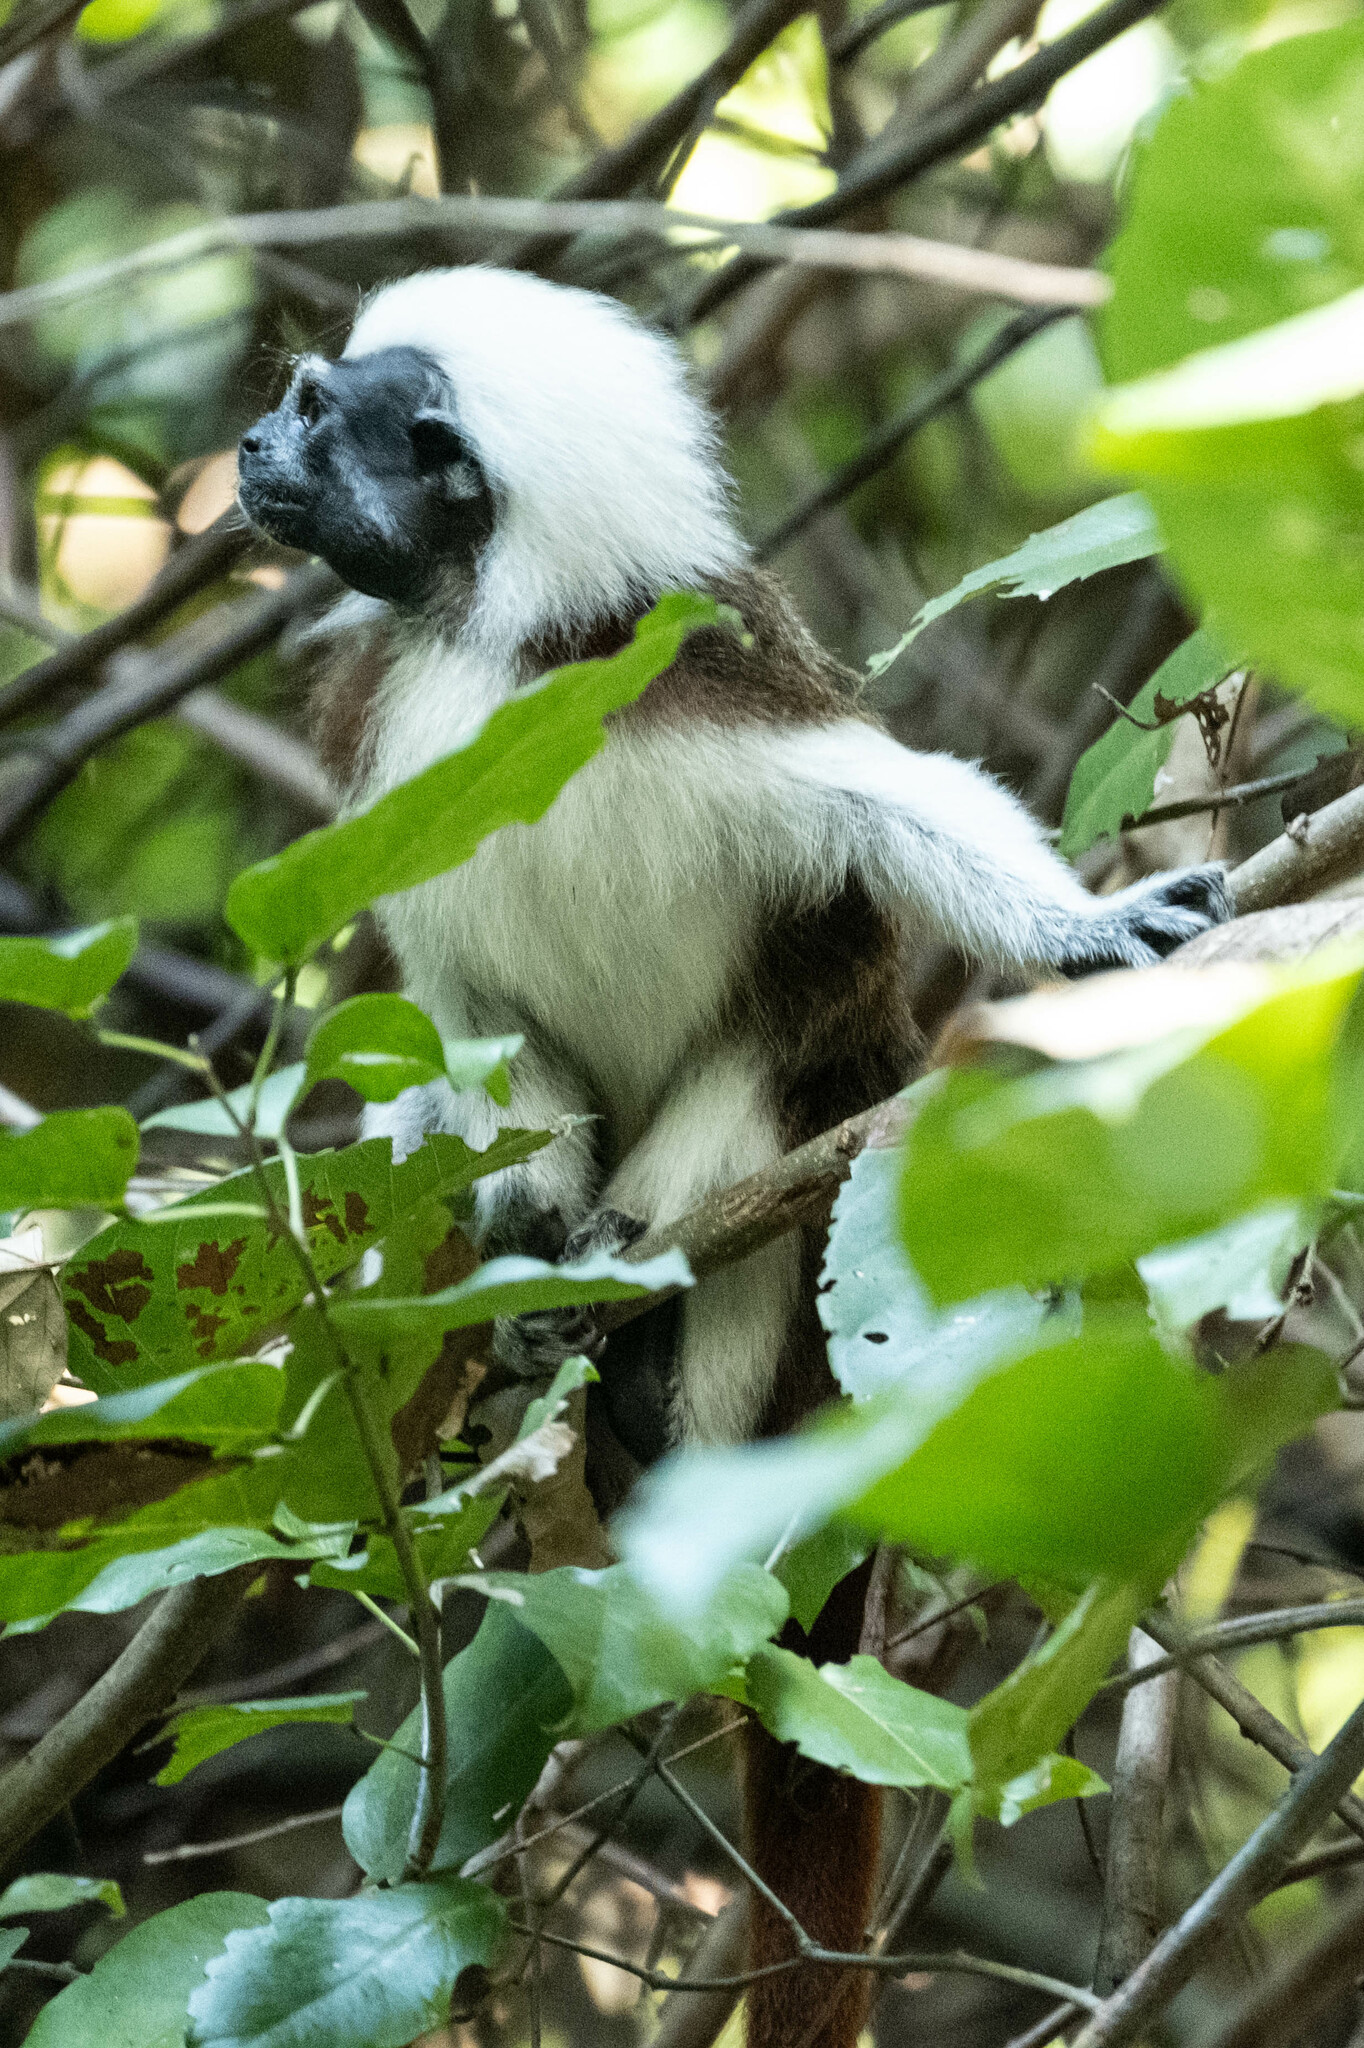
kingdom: Animalia
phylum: Chordata
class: Mammalia
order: Primates
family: Callitrichidae
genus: Saguinus
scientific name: Saguinus oedipus
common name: Cottontop tamarin
